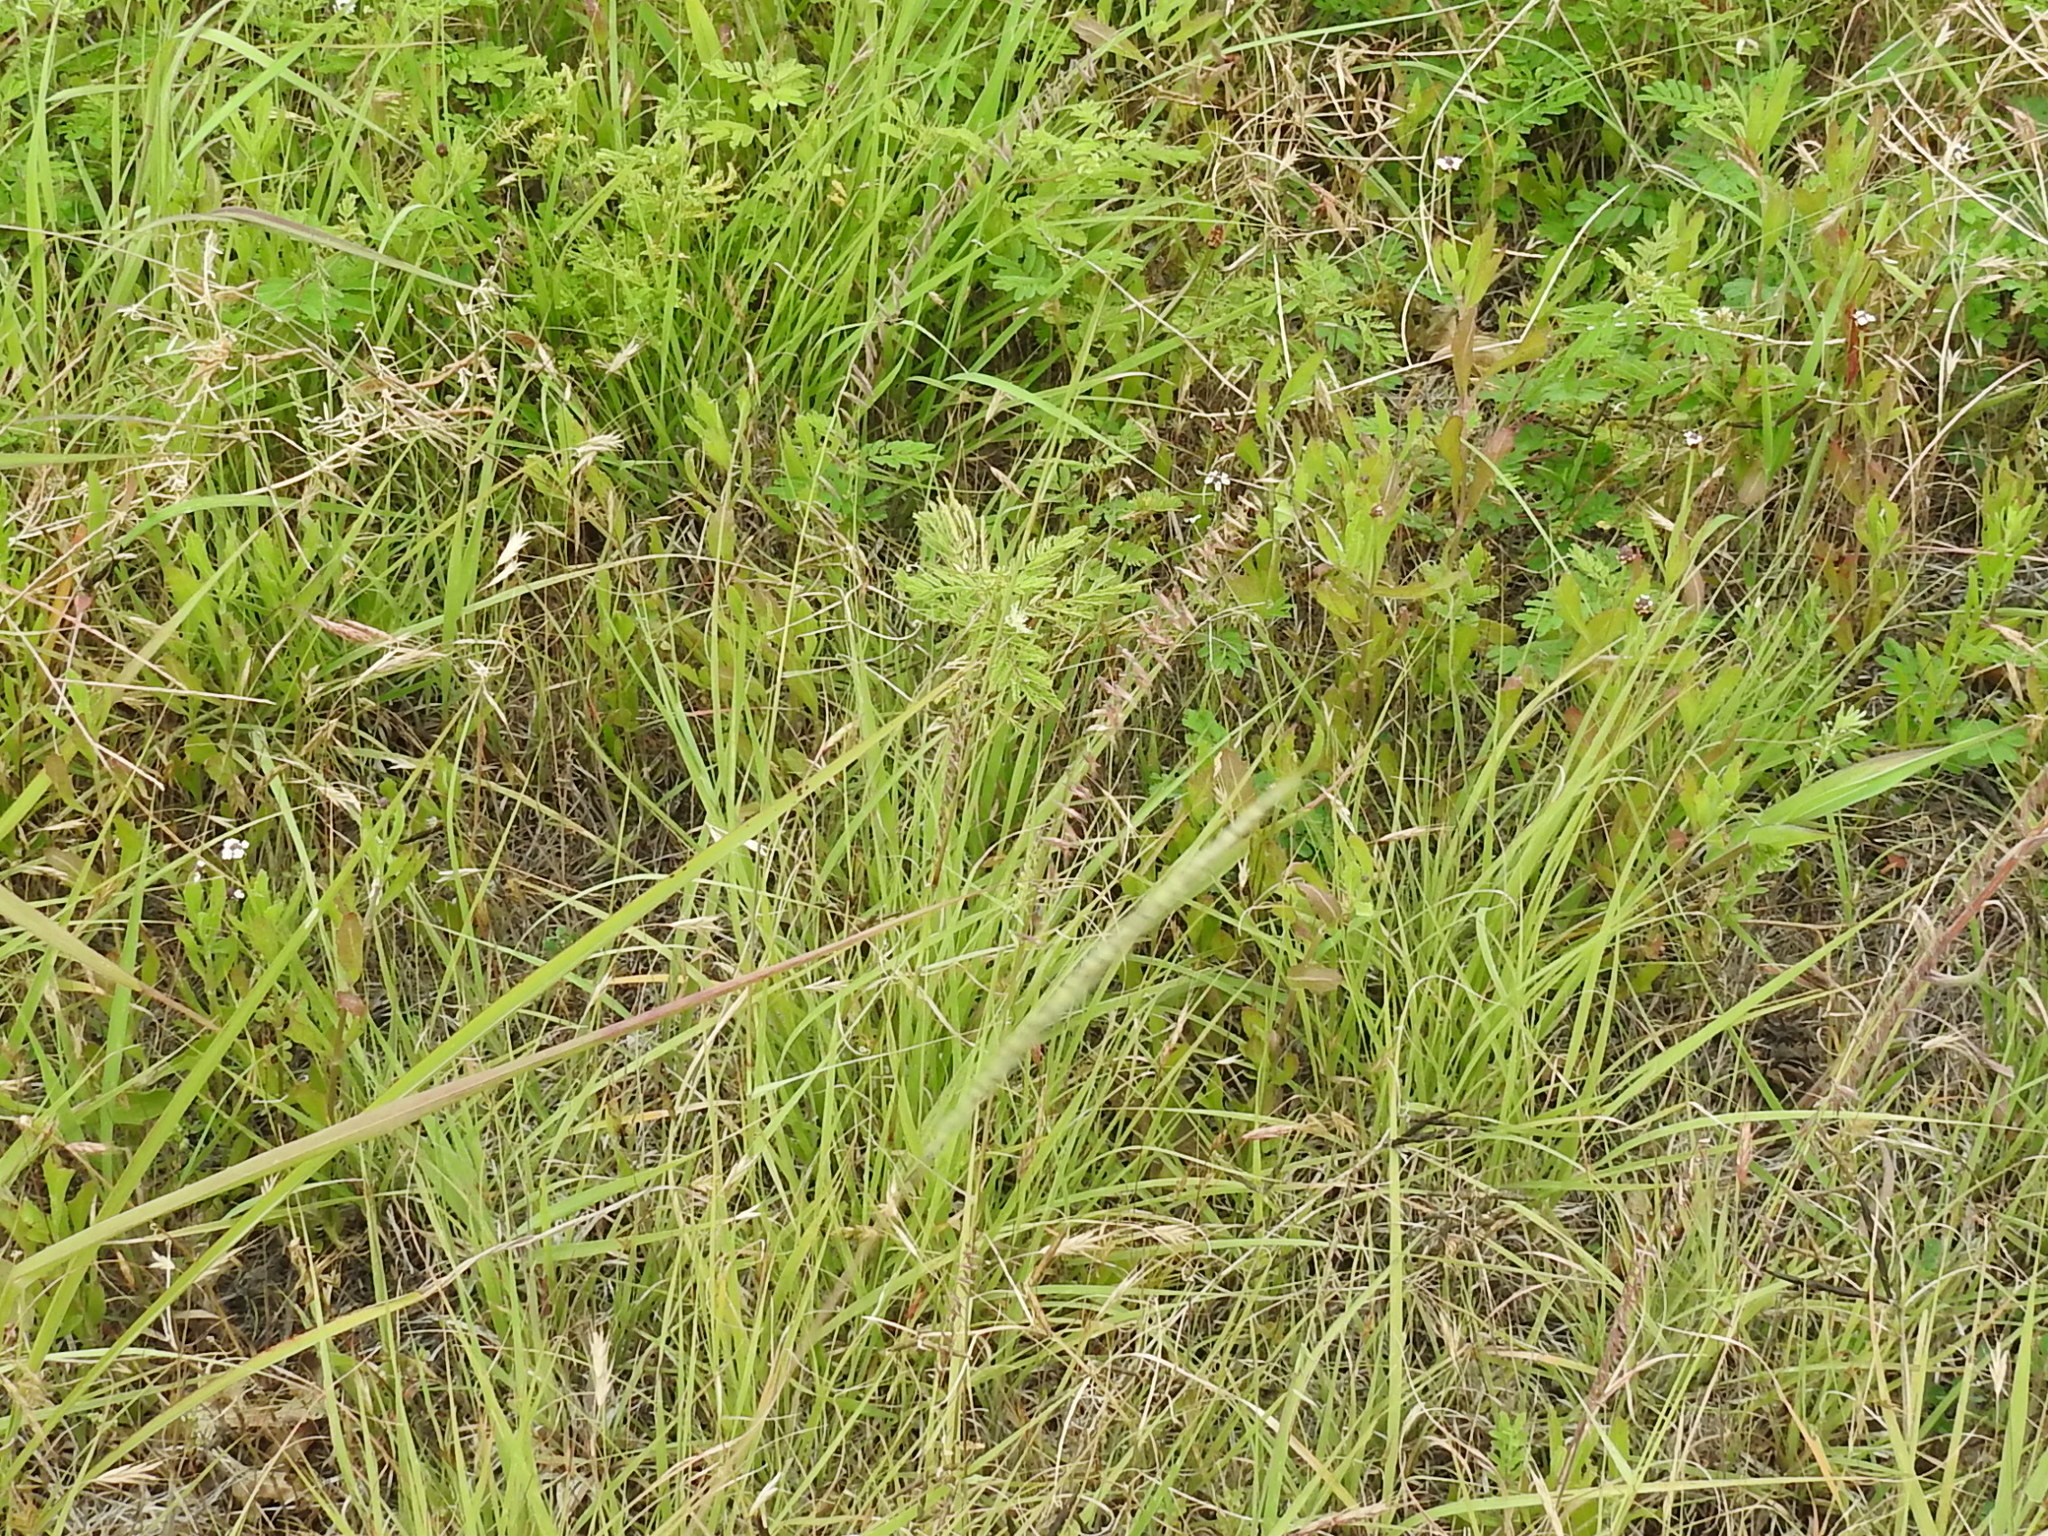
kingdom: Plantae
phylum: Tracheophyta
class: Liliopsida
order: Poales
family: Poaceae
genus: Bouteloua
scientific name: Bouteloua curtipendula
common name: Side-oats grama
